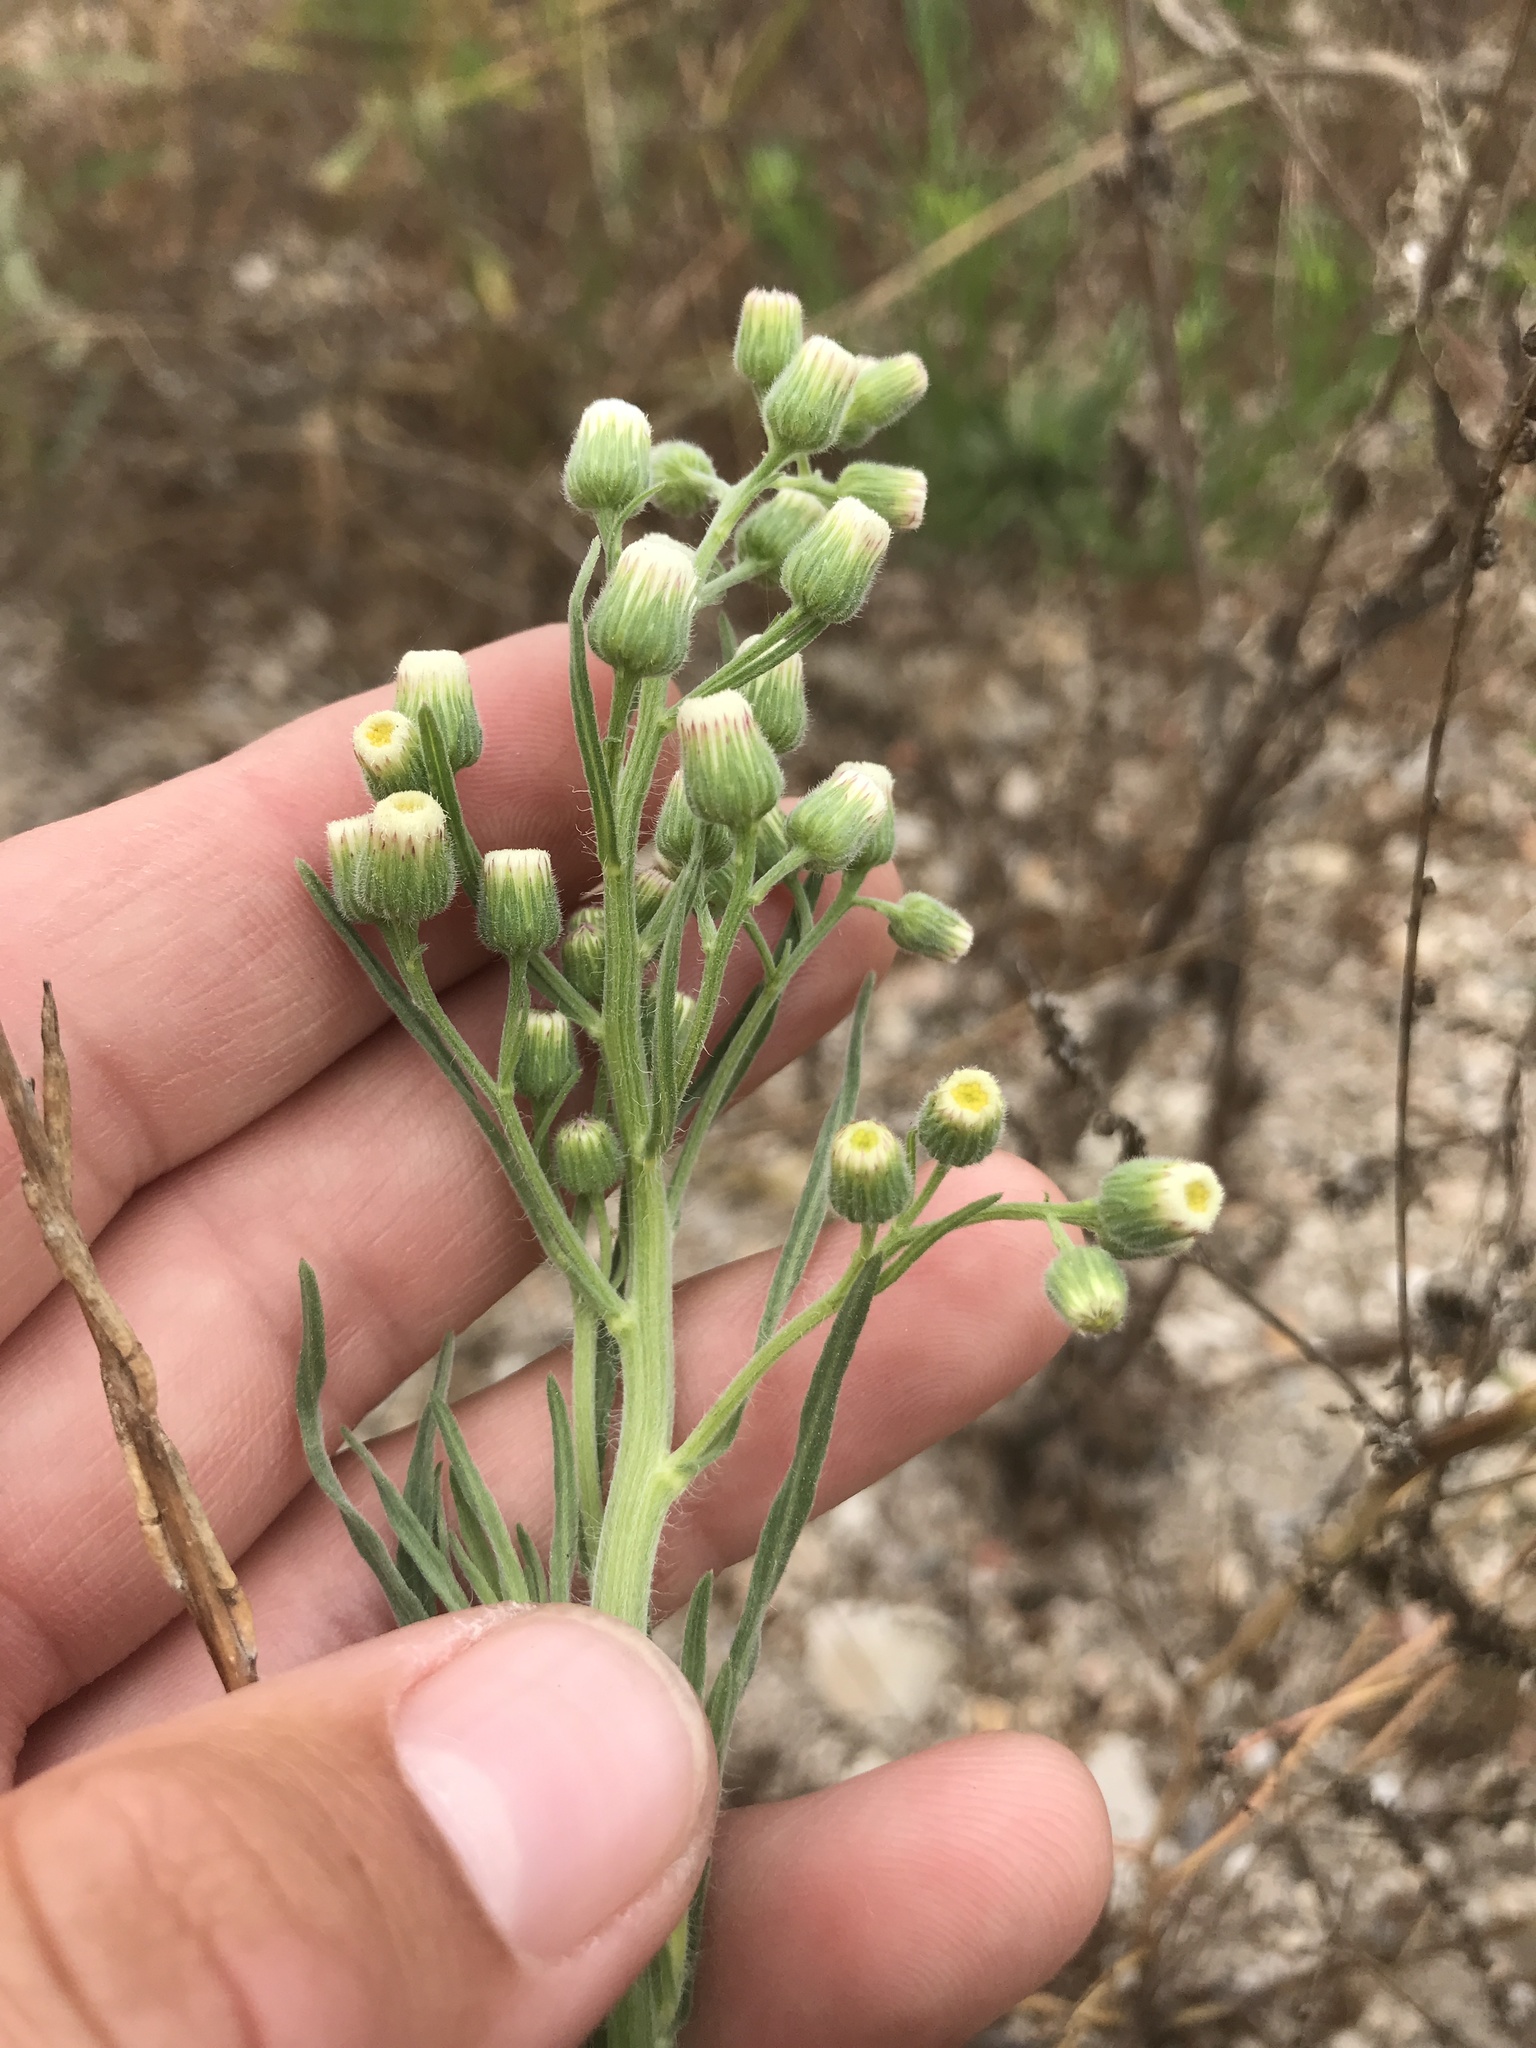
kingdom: Plantae
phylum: Tracheophyta
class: Magnoliopsida
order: Asterales
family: Asteraceae
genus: Erigeron
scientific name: Erigeron bonariensis
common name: Argentine fleabane
